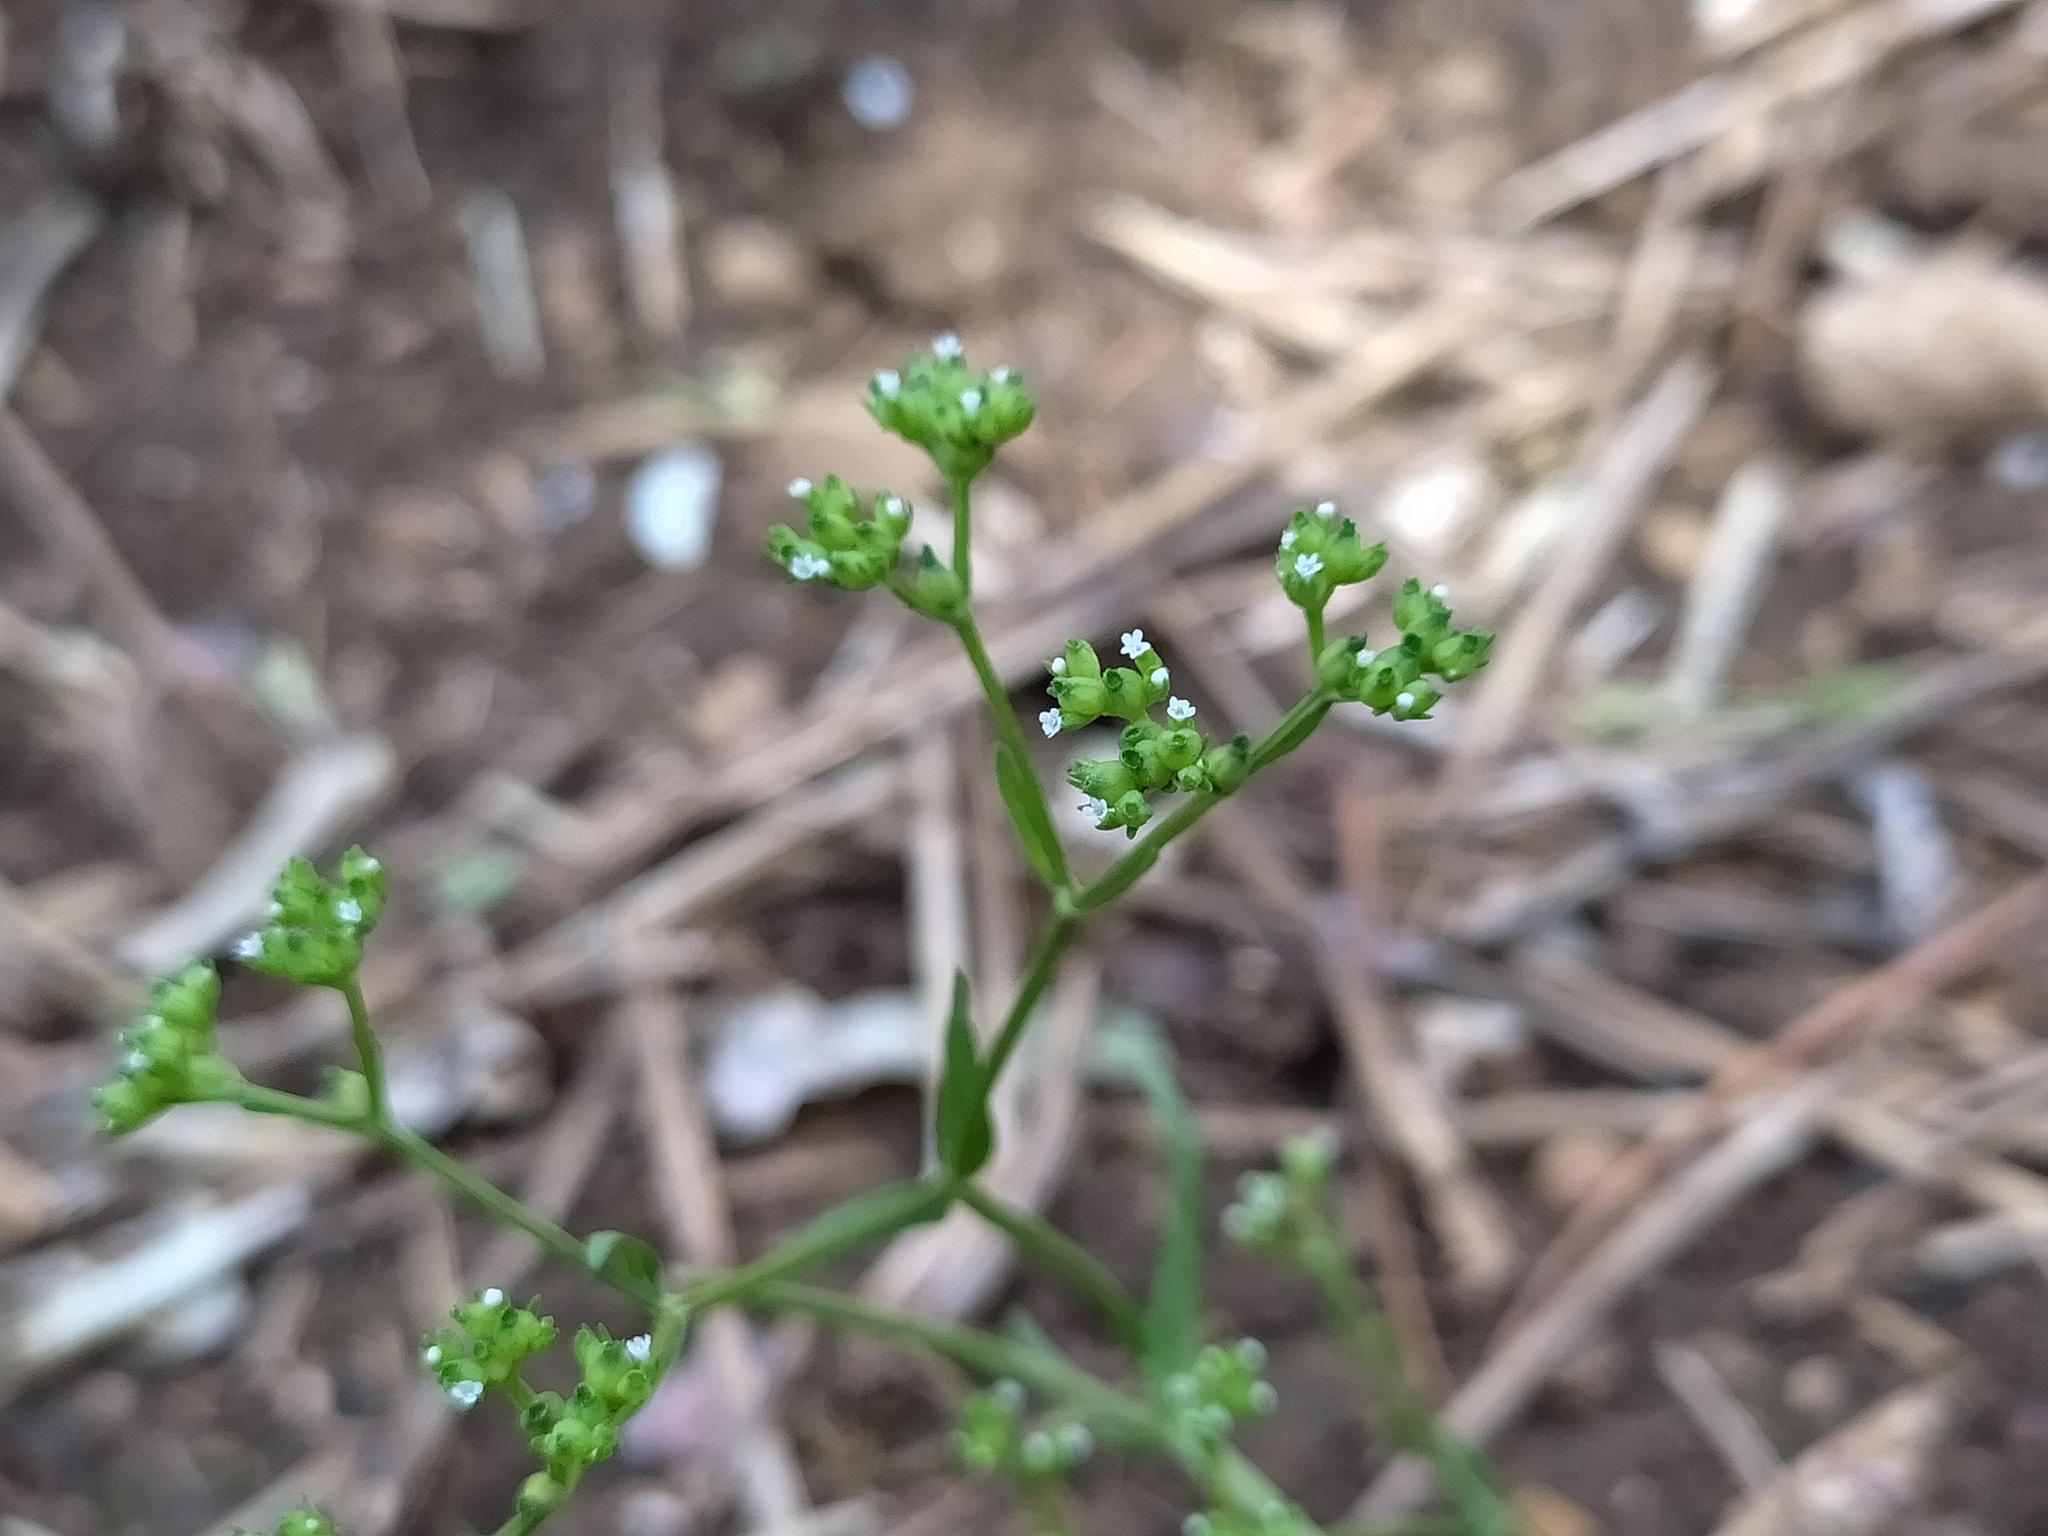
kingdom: Plantae
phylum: Tracheophyta
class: Magnoliopsida
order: Dipsacales
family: Caprifoliaceae
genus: Valerianella
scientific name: Valerianella rimosa
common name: Broad-fruited cornsalad
